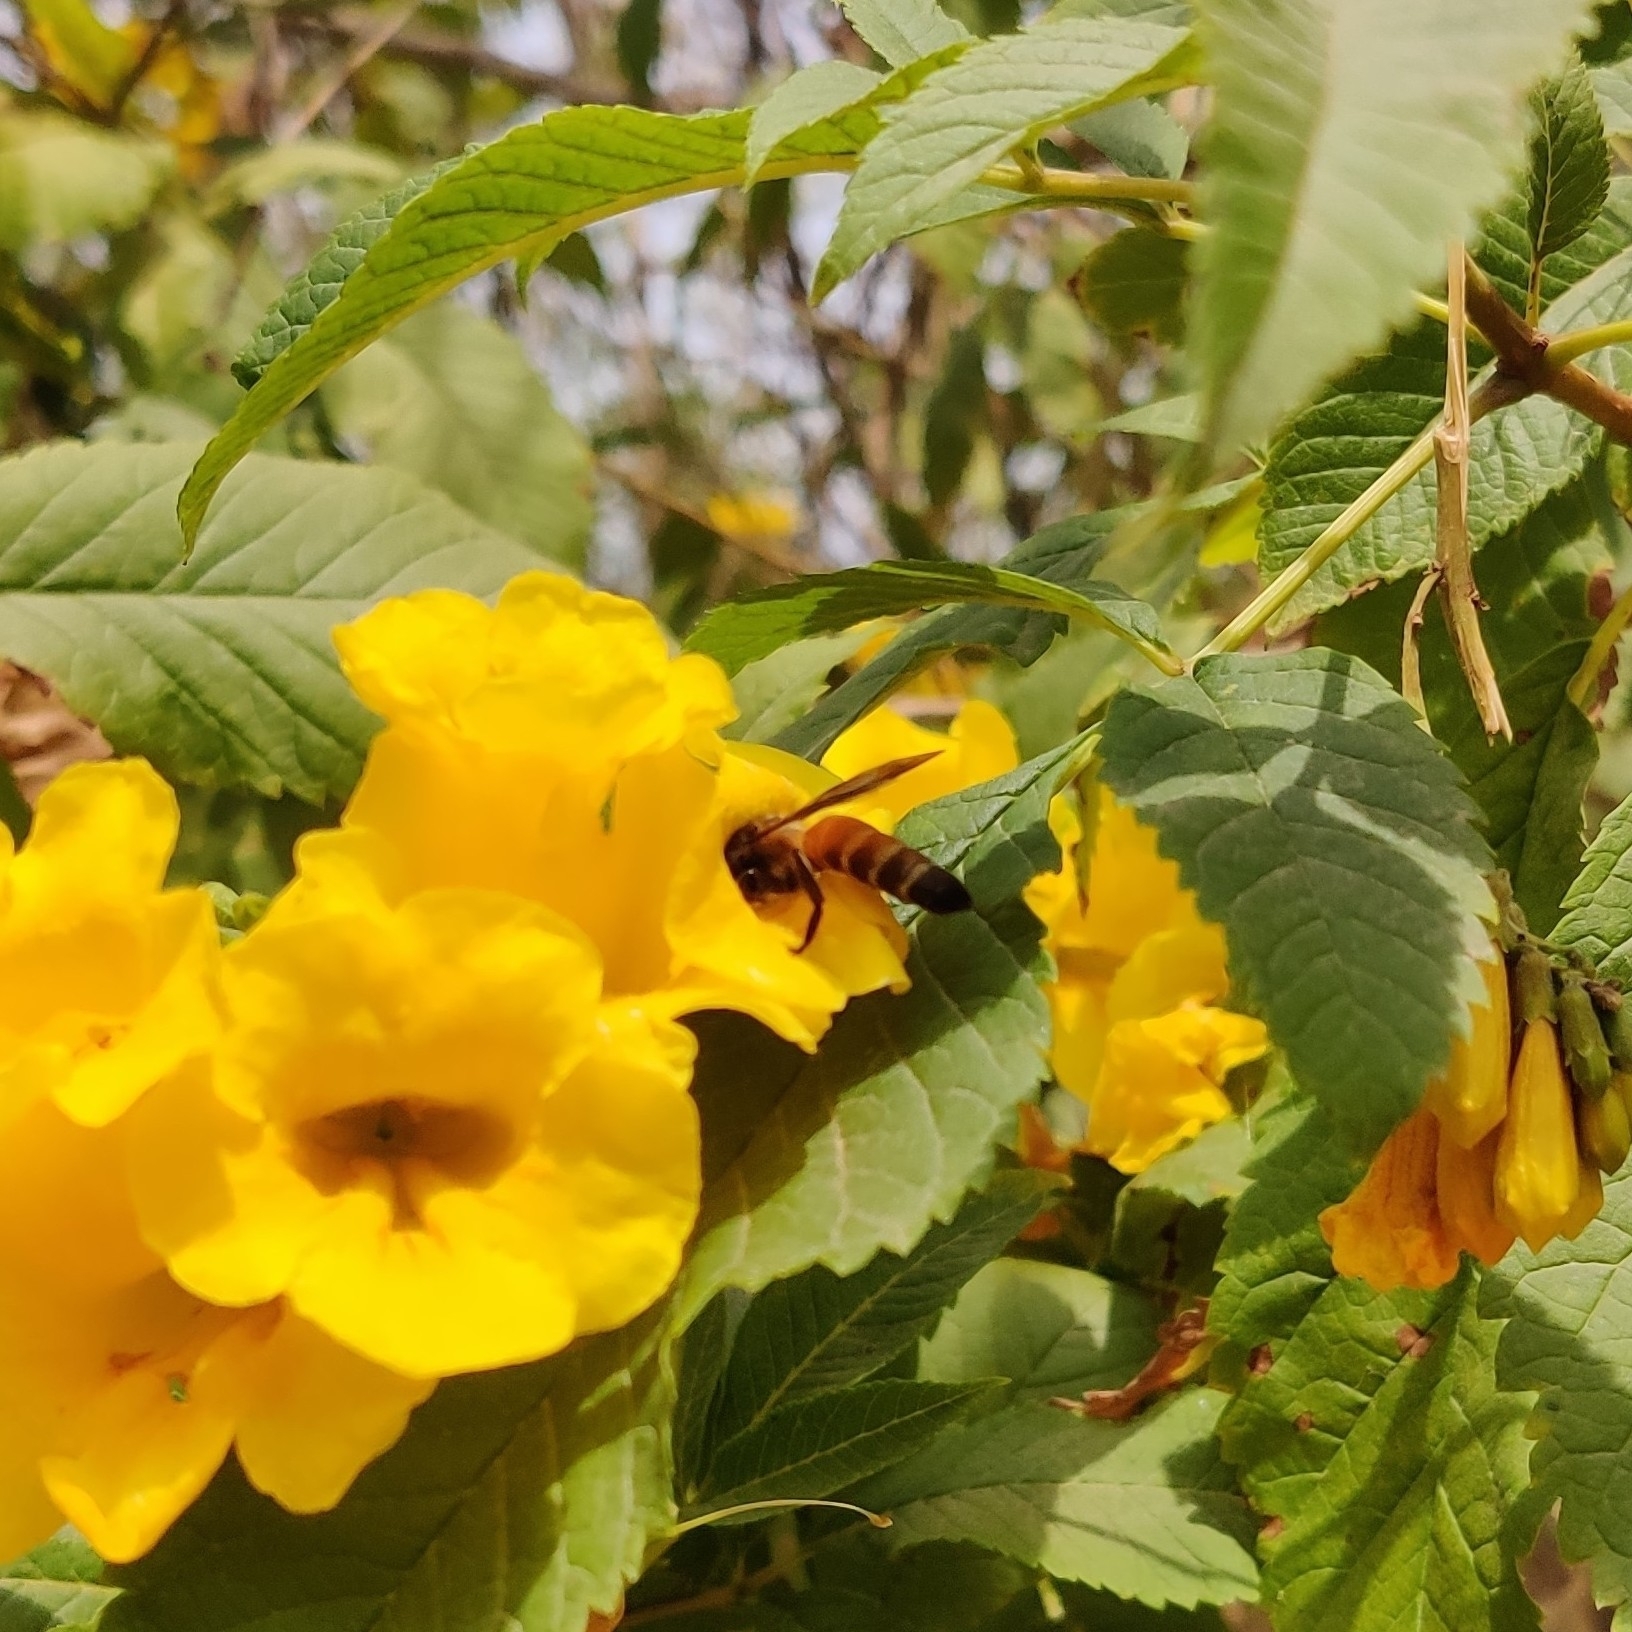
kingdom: Animalia
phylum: Arthropoda
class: Insecta
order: Hymenoptera
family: Apidae
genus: Apis
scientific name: Apis dorsata
